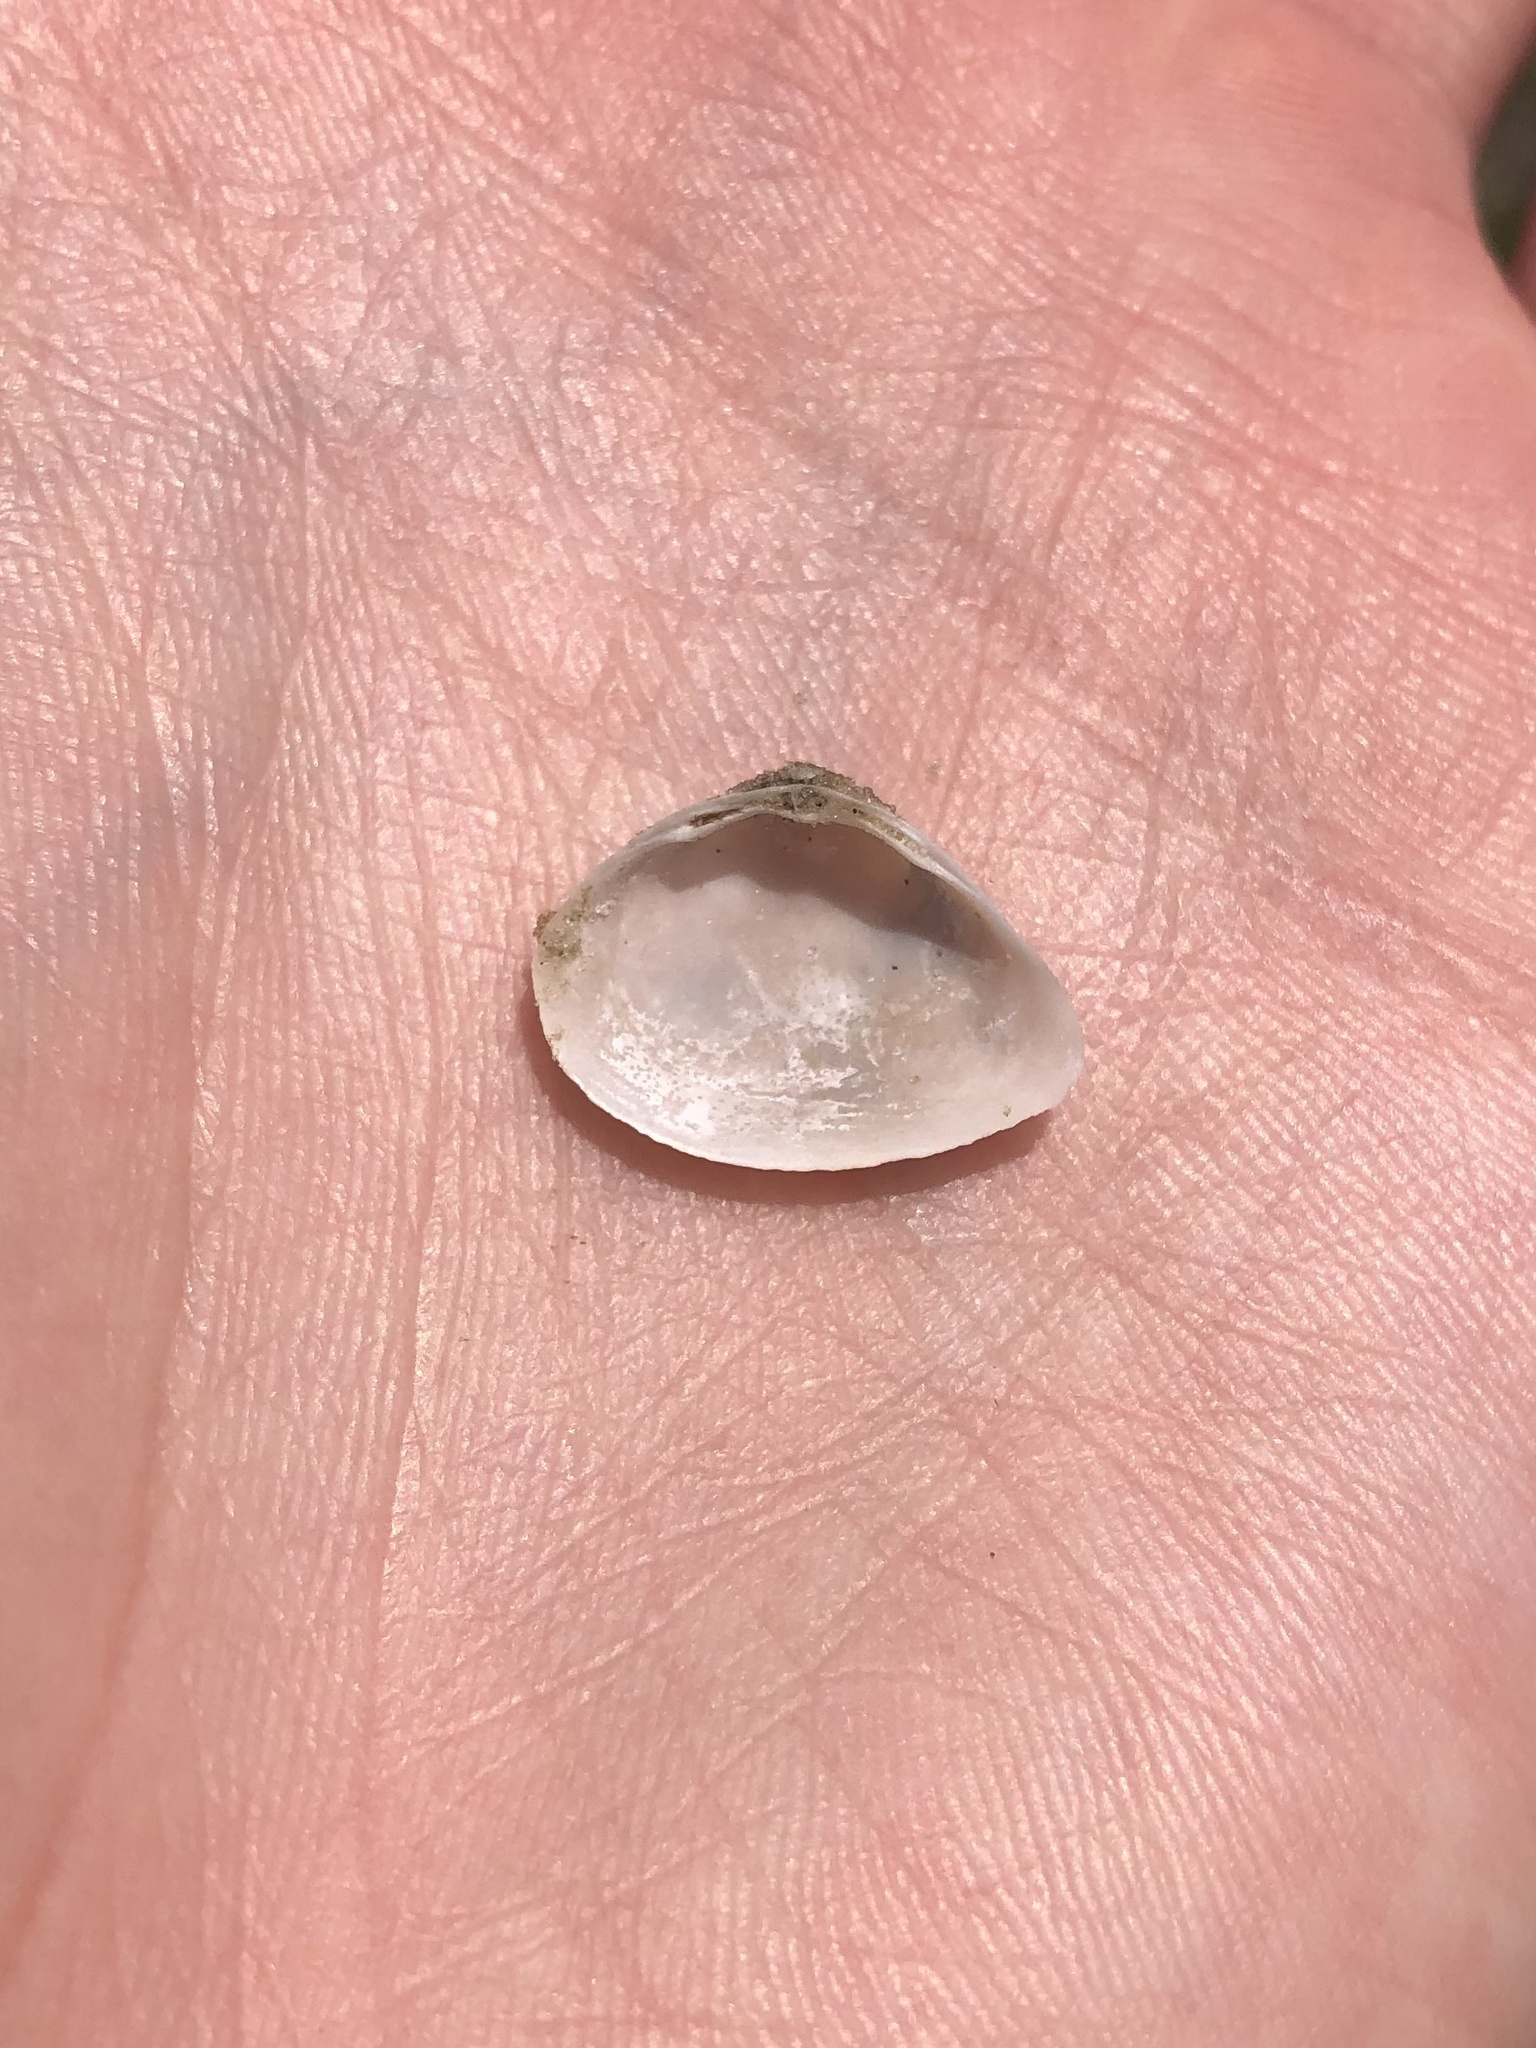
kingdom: Animalia
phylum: Mollusca
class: Bivalvia
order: Venerida
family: Mactridae
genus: Mulinia
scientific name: Mulinia lateralis
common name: Dwarf surfclam
